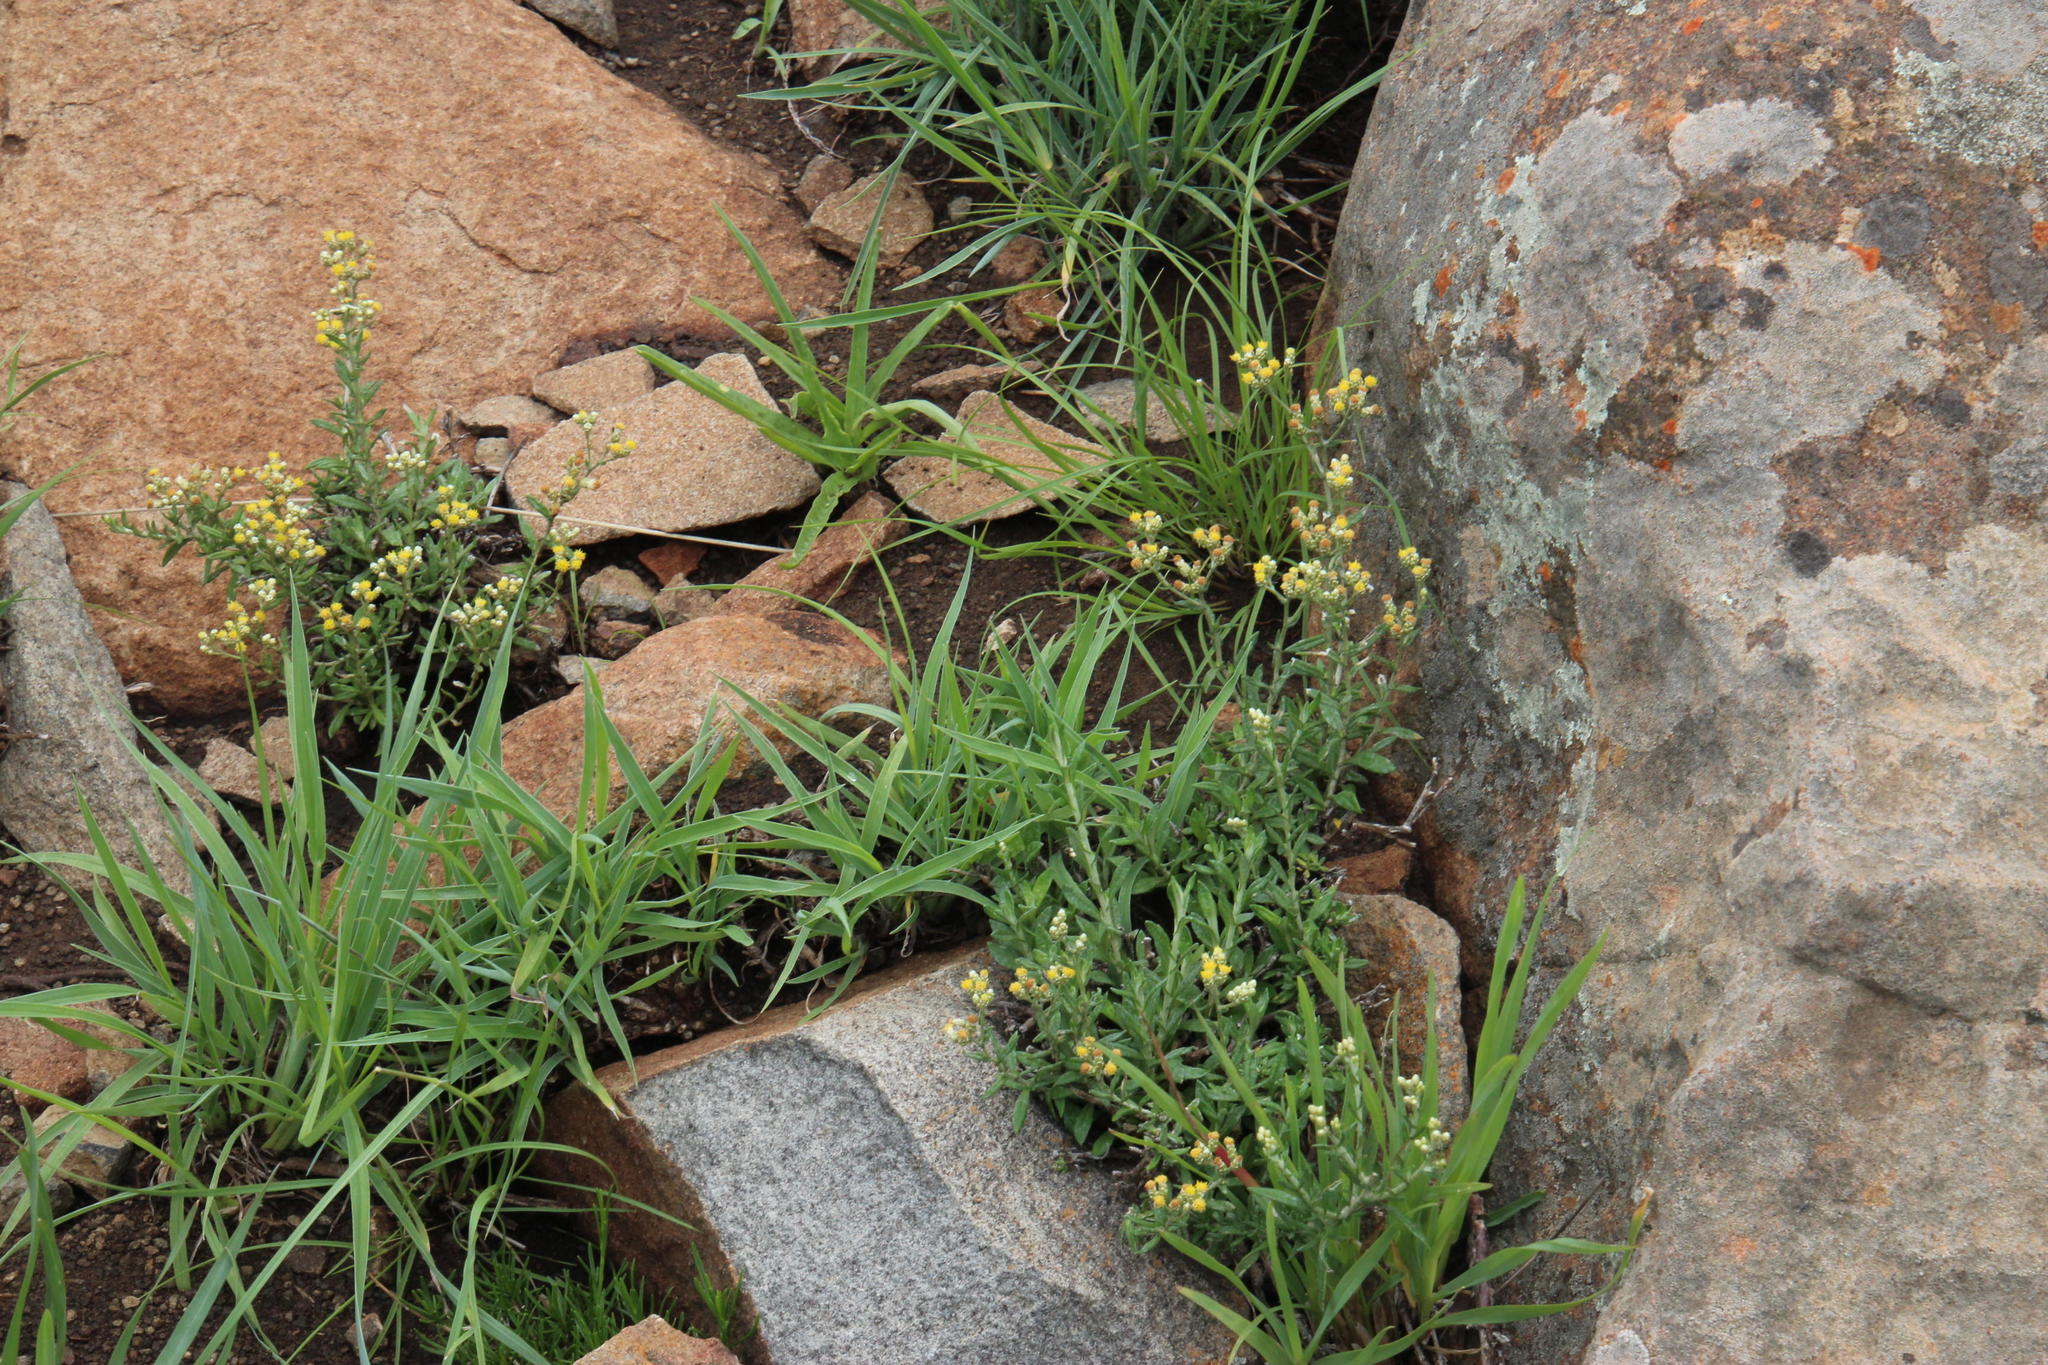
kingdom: Plantae
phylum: Tracheophyta
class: Magnoliopsida
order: Asterales
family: Asteraceae
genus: Helichrysum
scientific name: Helichrysum rosum
